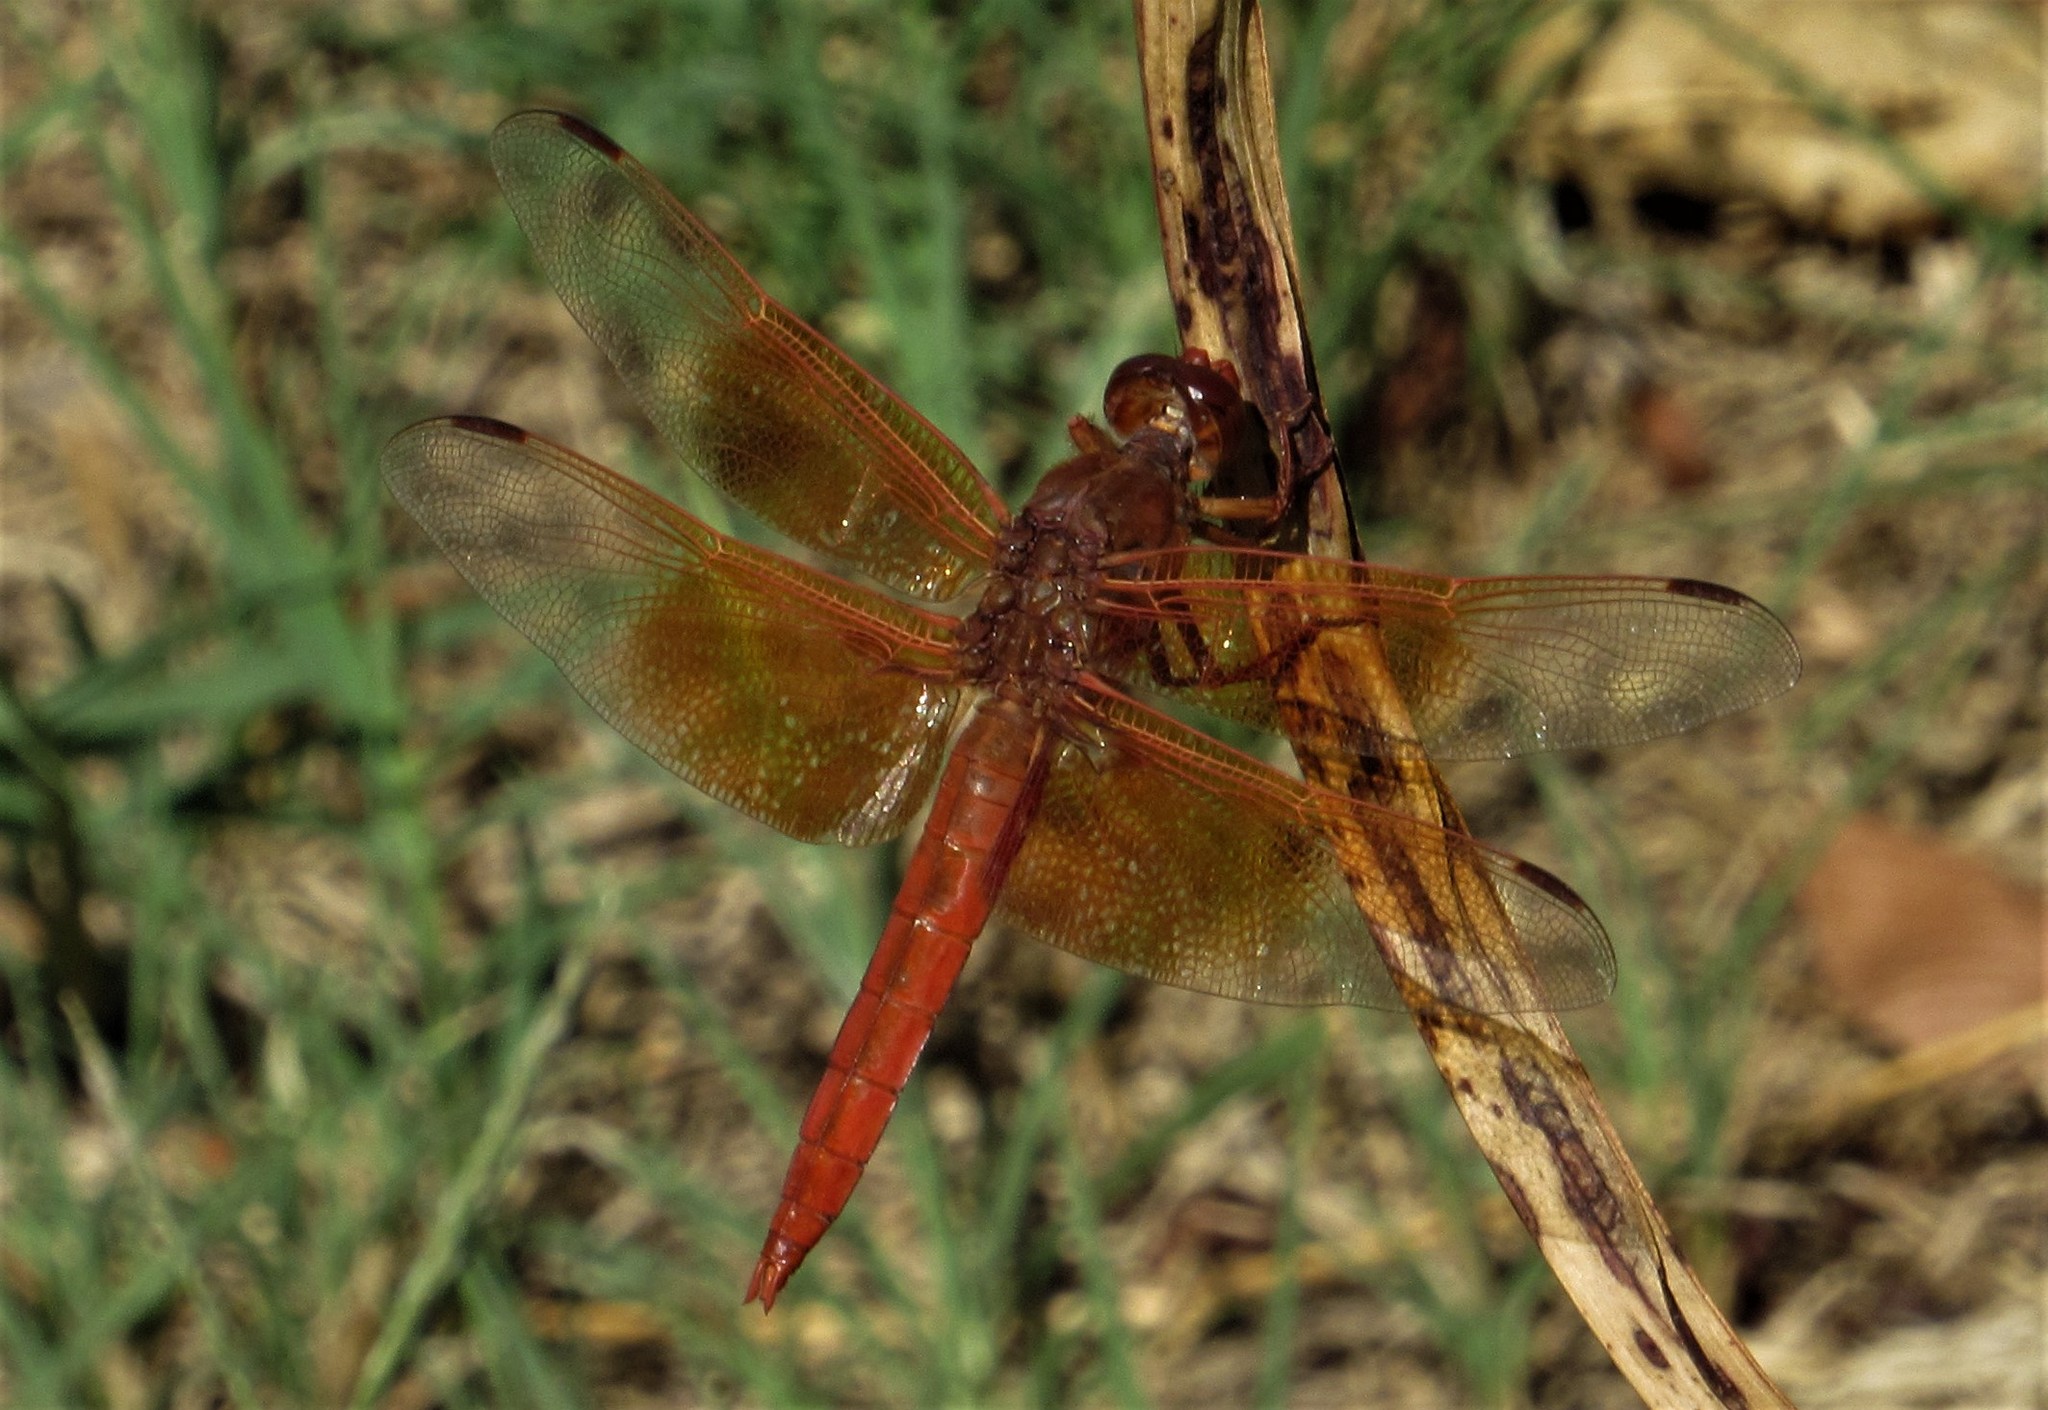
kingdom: Animalia
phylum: Arthropoda
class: Insecta
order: Odonata
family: Libellulidae
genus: Libellula
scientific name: Libellula saturata
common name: Flame skimmer
